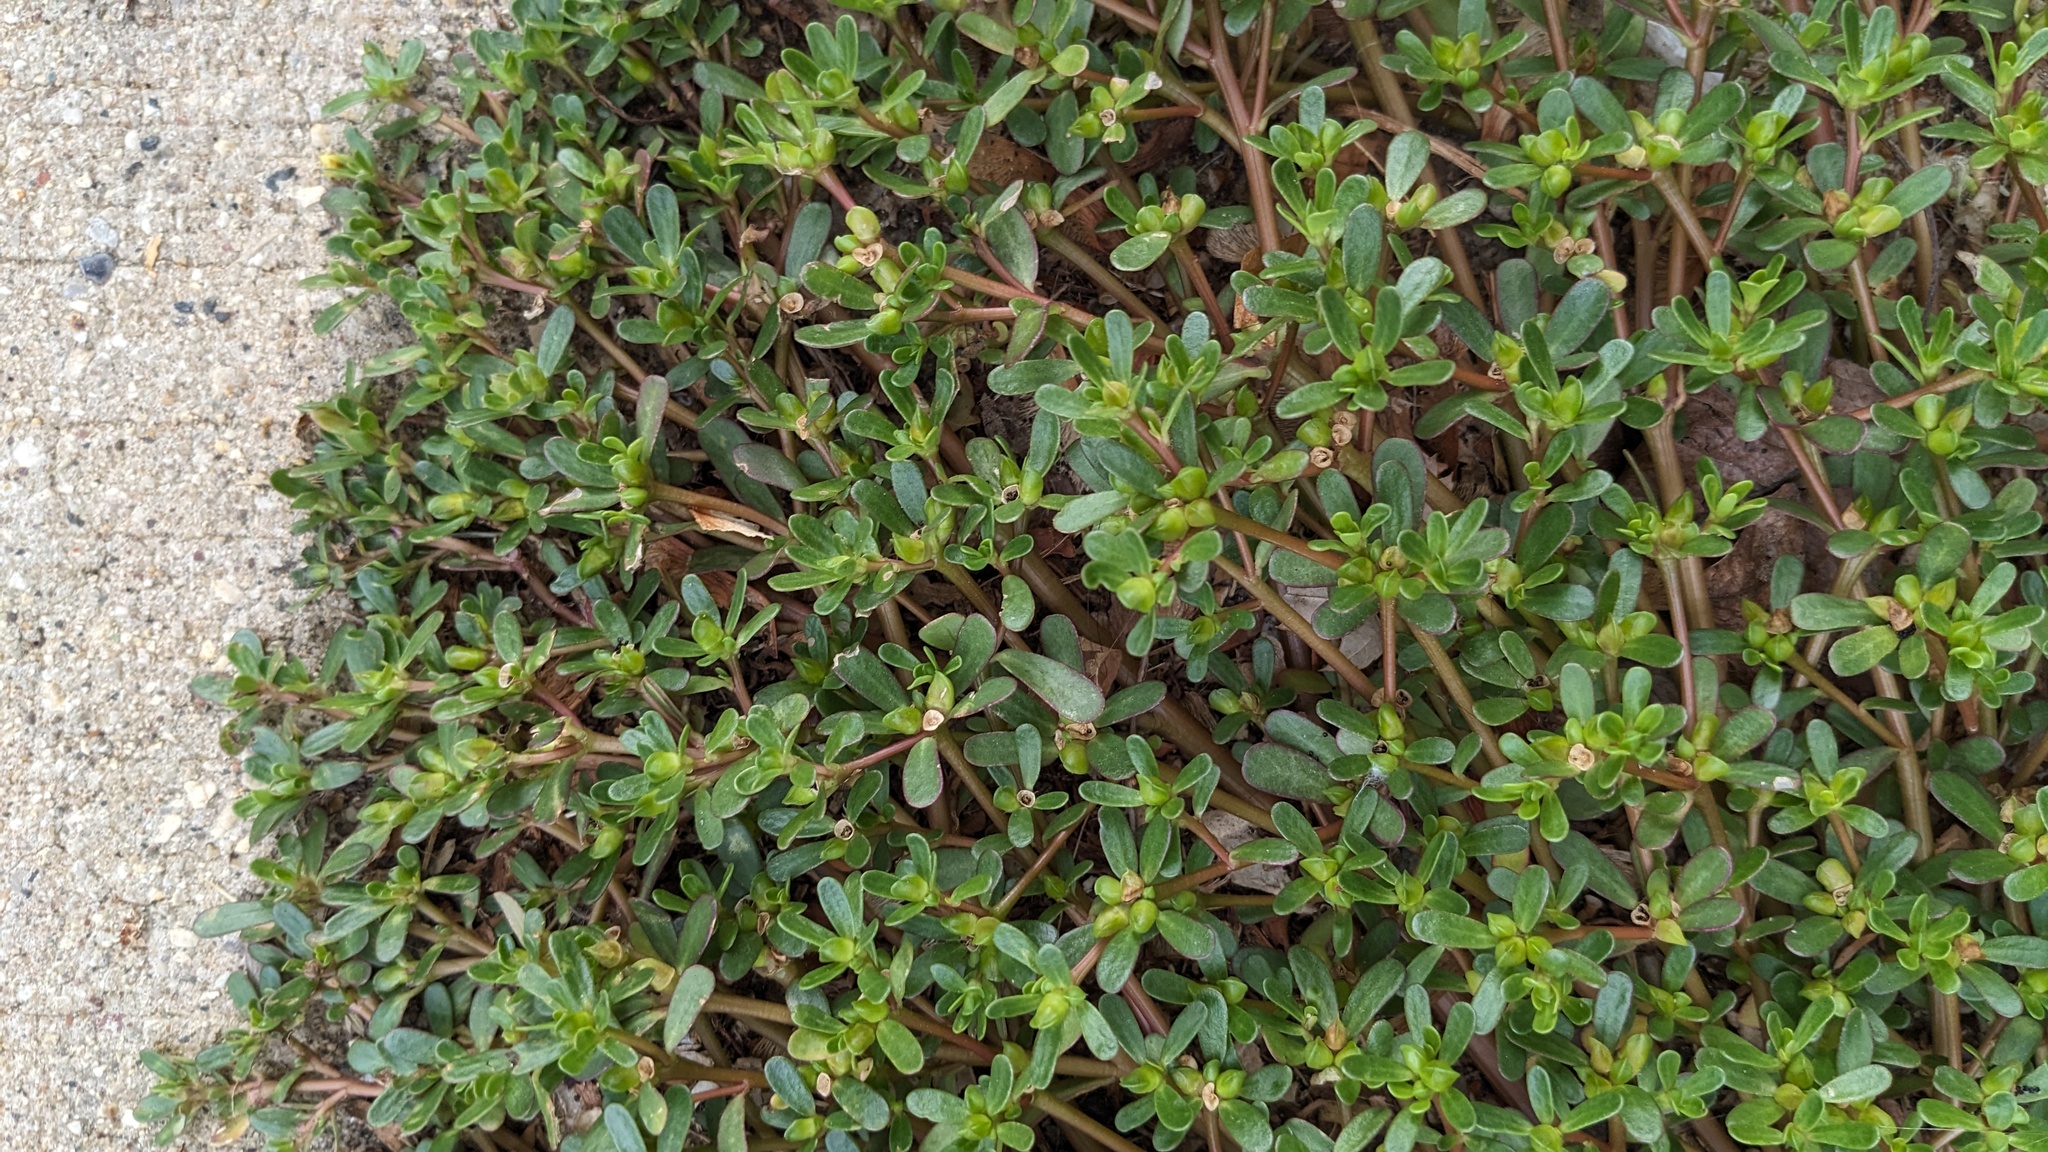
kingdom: Plantae
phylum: Tracheophyta
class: Magnoliopsida
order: Caryophyllales
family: Portulacaceae
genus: Portulaca
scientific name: Portulaca oleracea
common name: Common purslane
